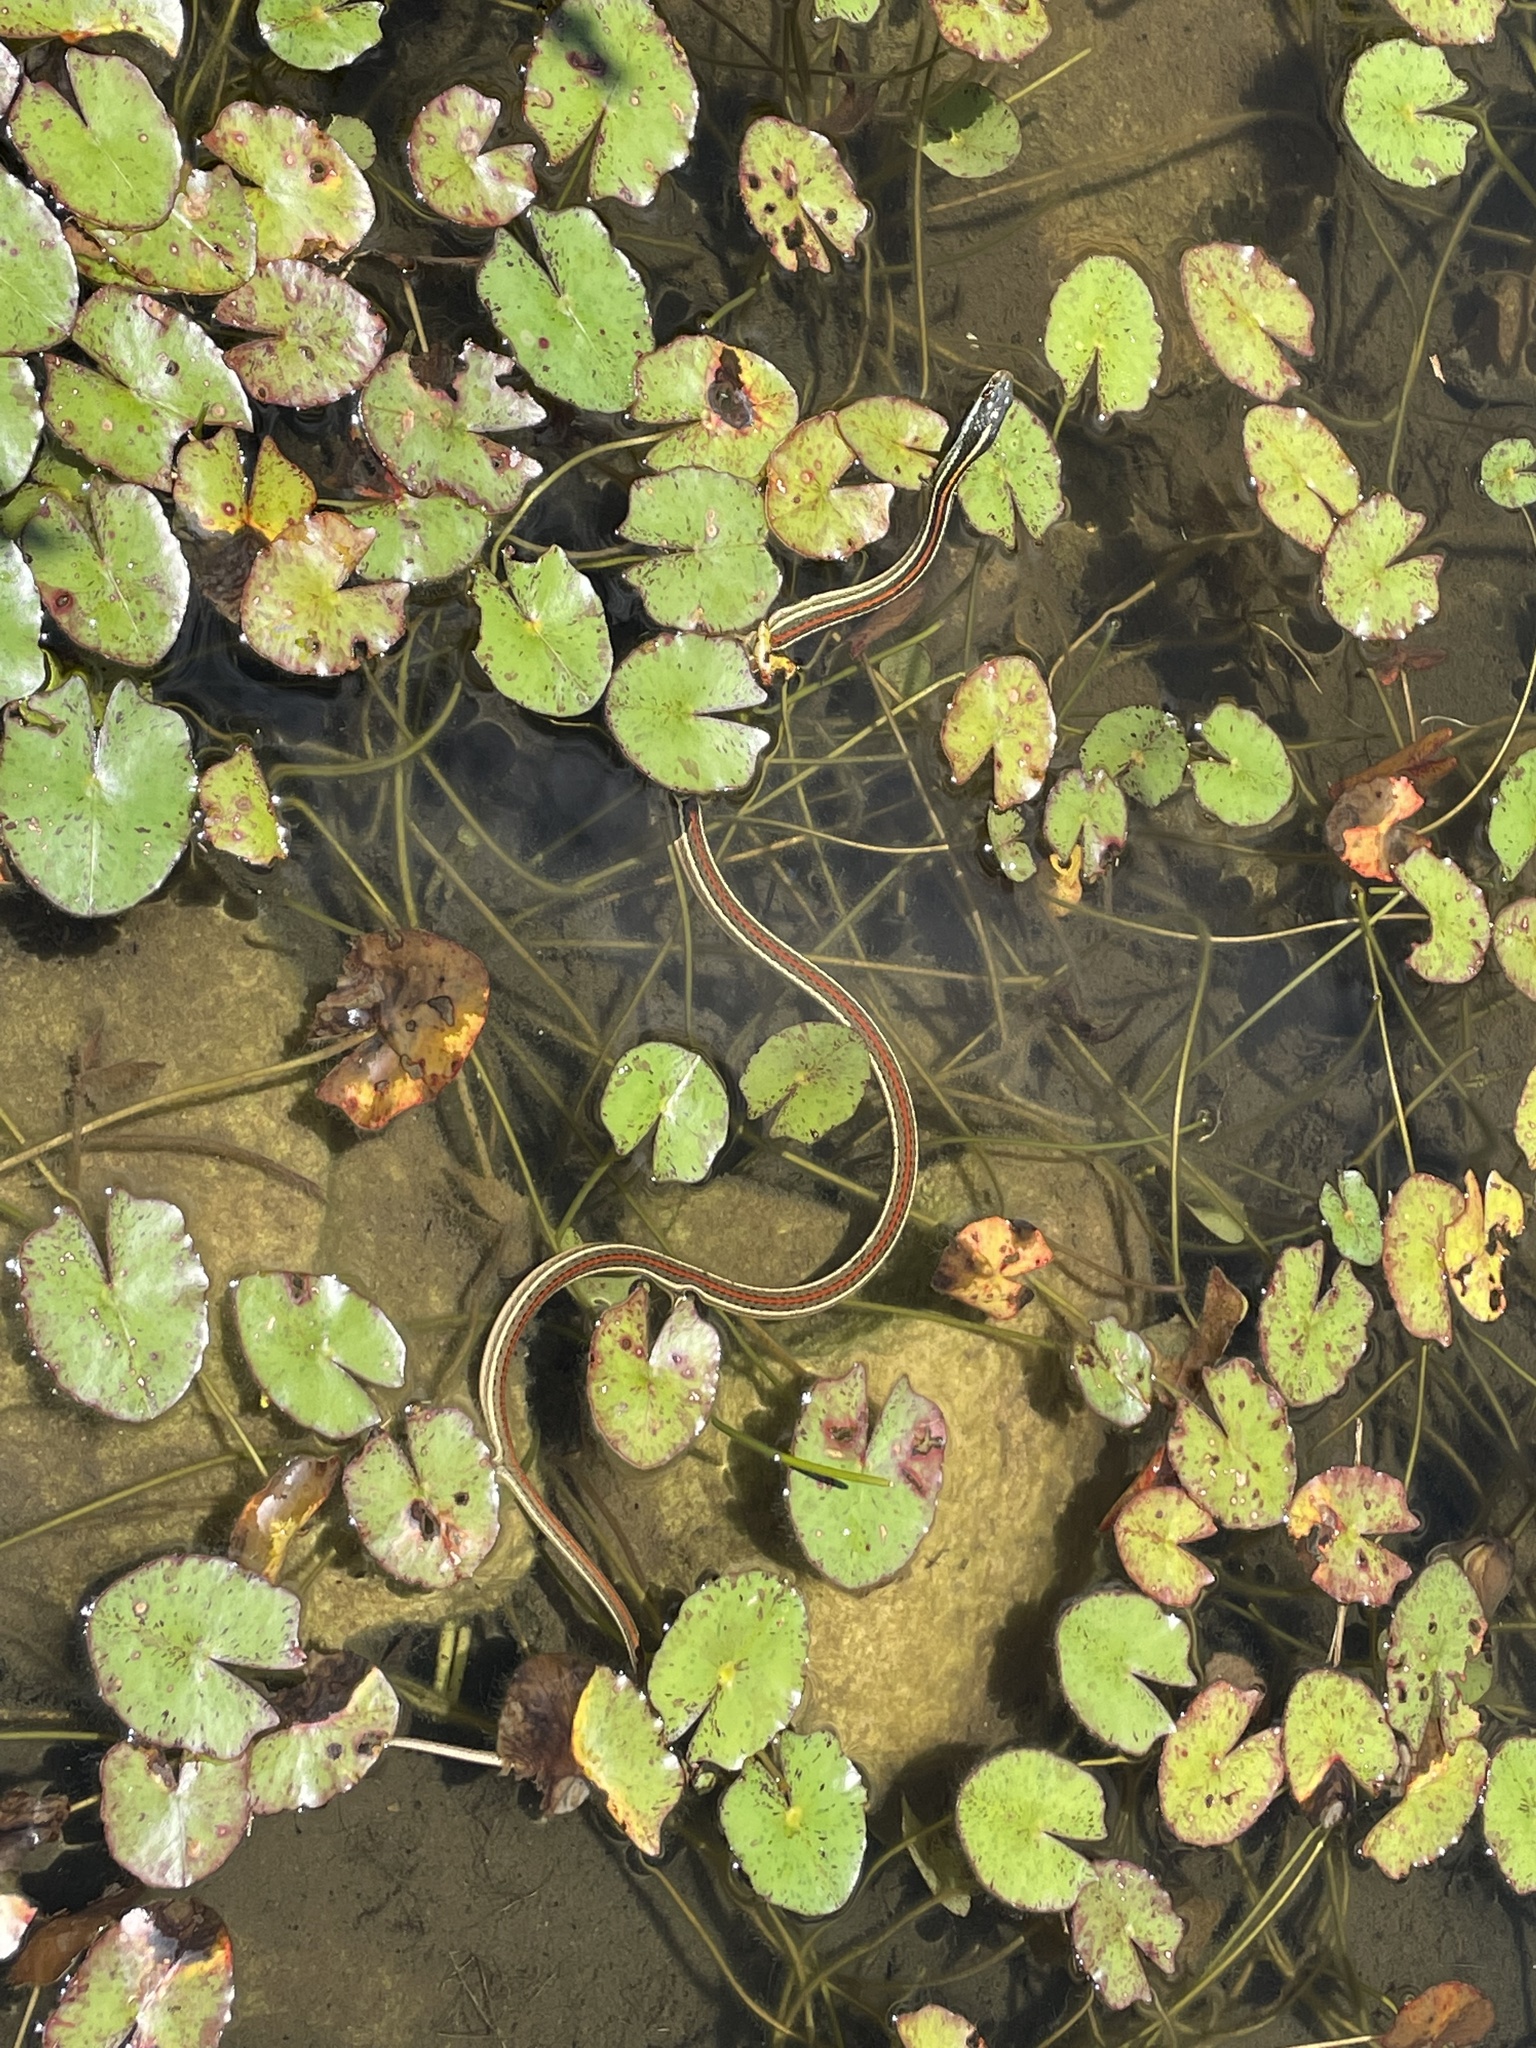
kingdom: Animalia
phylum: Chordata
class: Squamata
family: Colubridae
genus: Thamnophis
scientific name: Thamnophis proximus
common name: Western ribbon snake
